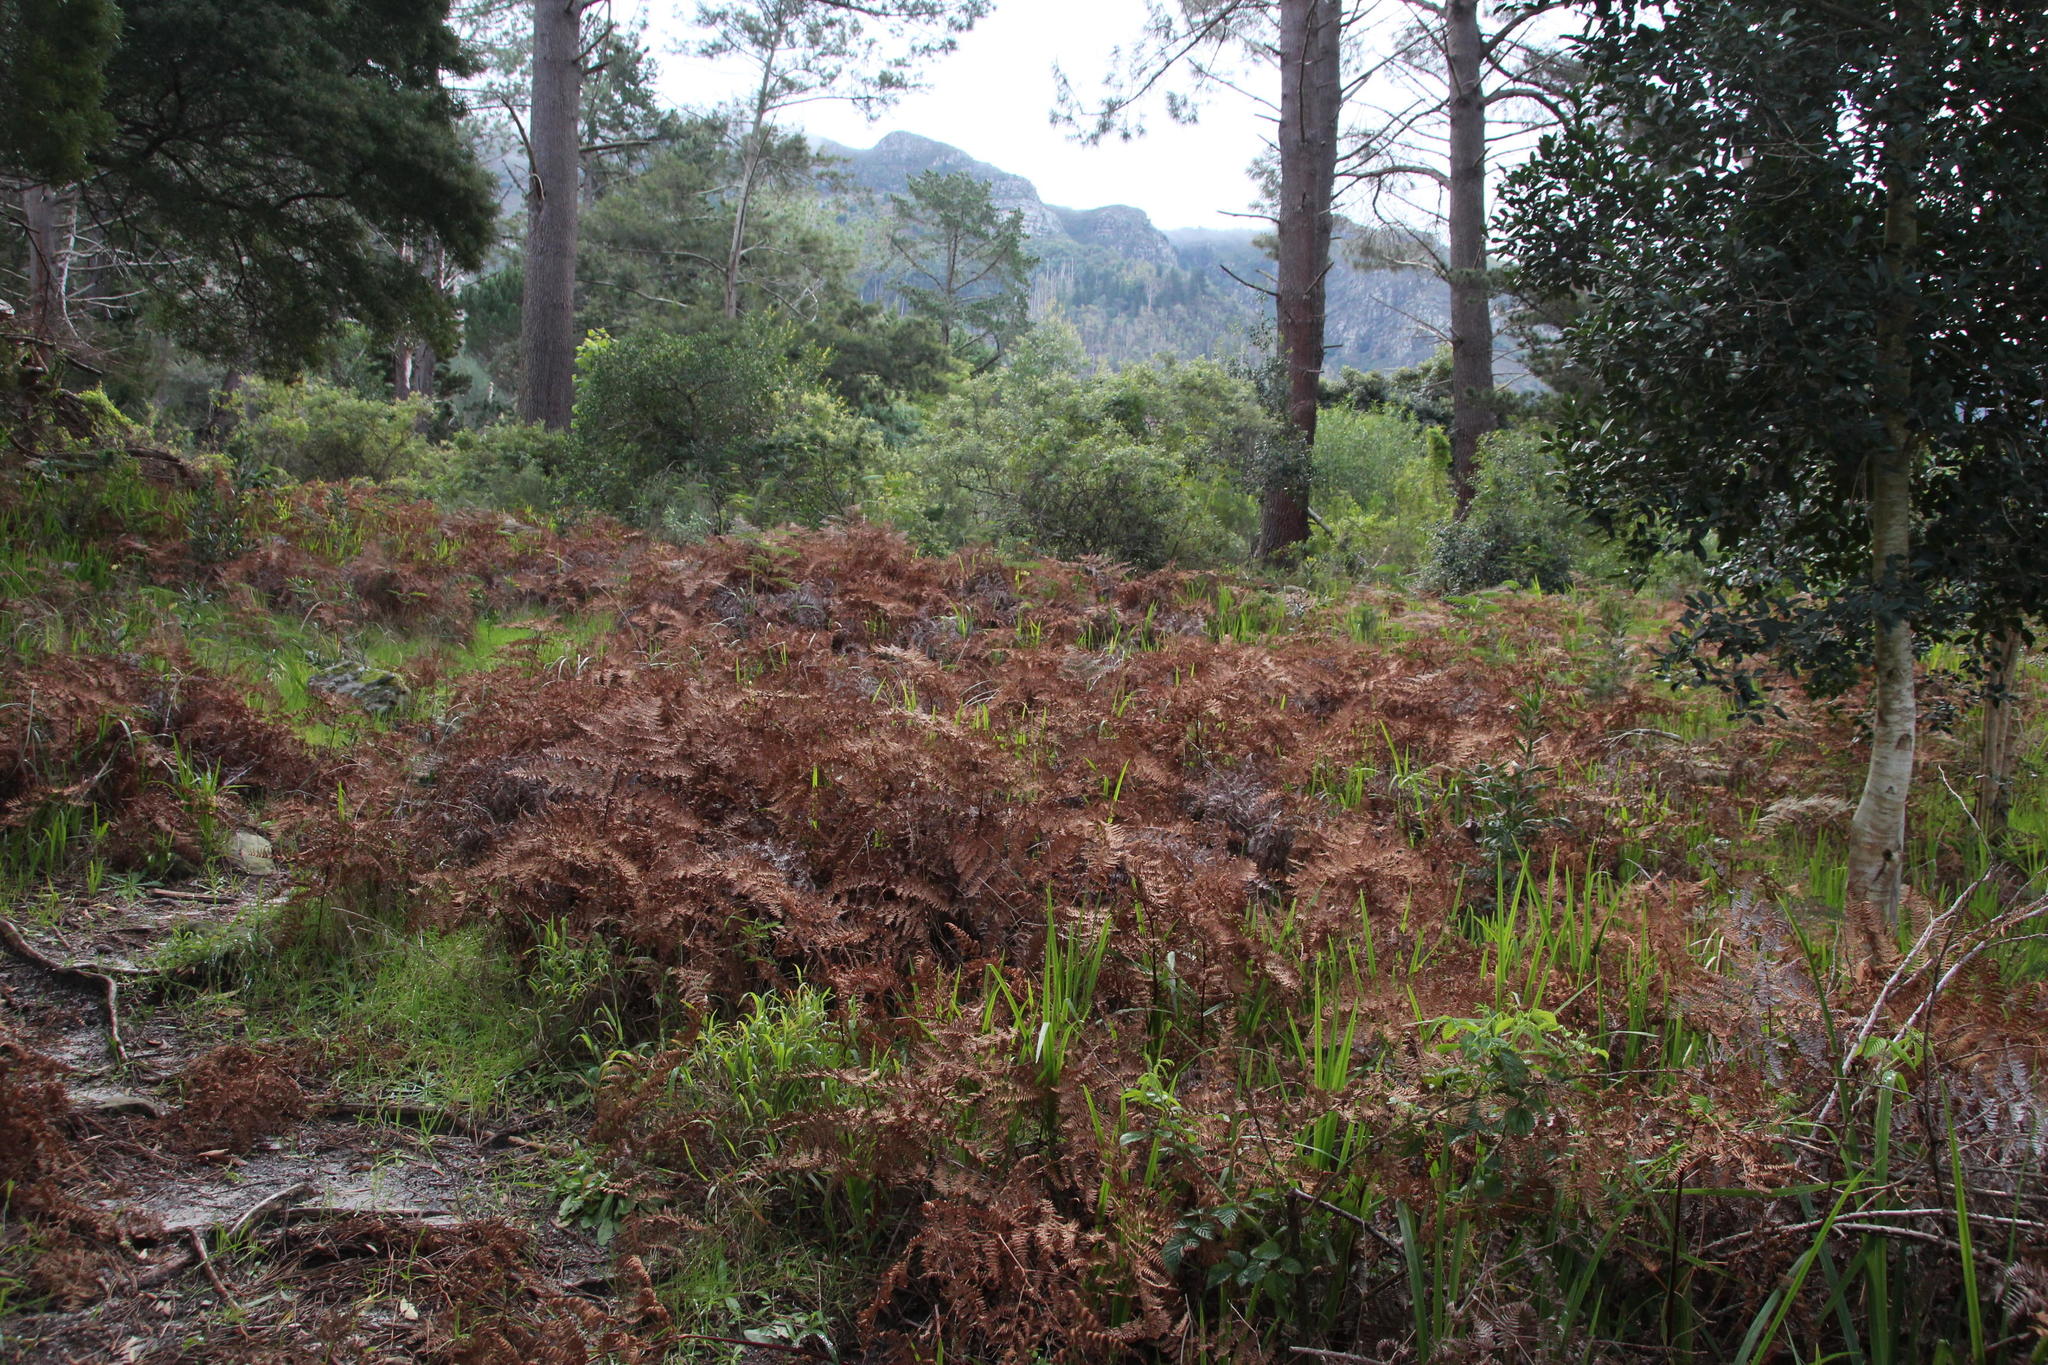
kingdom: Plantae
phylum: Tracheophyta
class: Polypodiopsida
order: Polypodiales
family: Dennstaedtiaceae
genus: Pteridium
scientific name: Pteridium aquilinum
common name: Bracken
